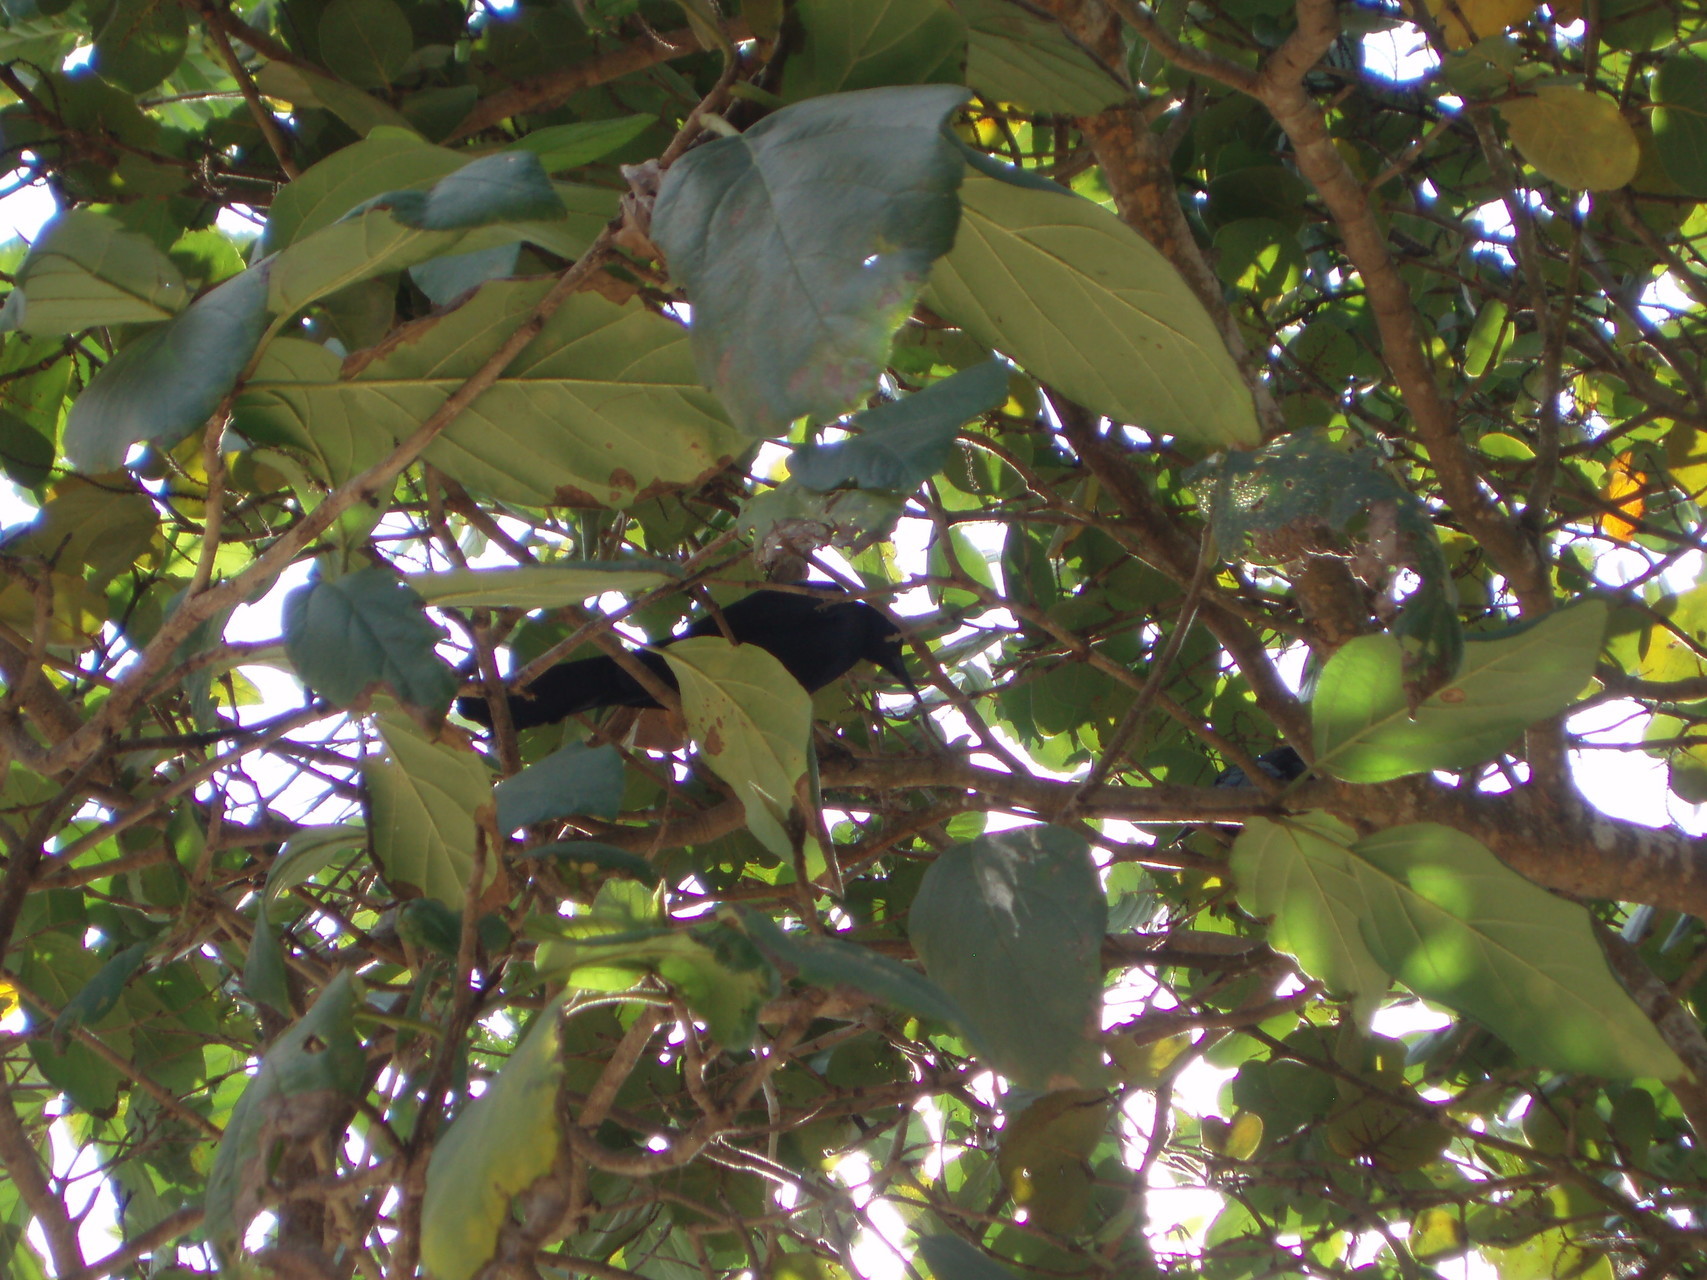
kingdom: Animalia
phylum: Chordata
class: Aves
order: Passeriformes
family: Icteridae
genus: Quiscalus
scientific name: Quiscalus mexicanus
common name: Great-tailed grackle
